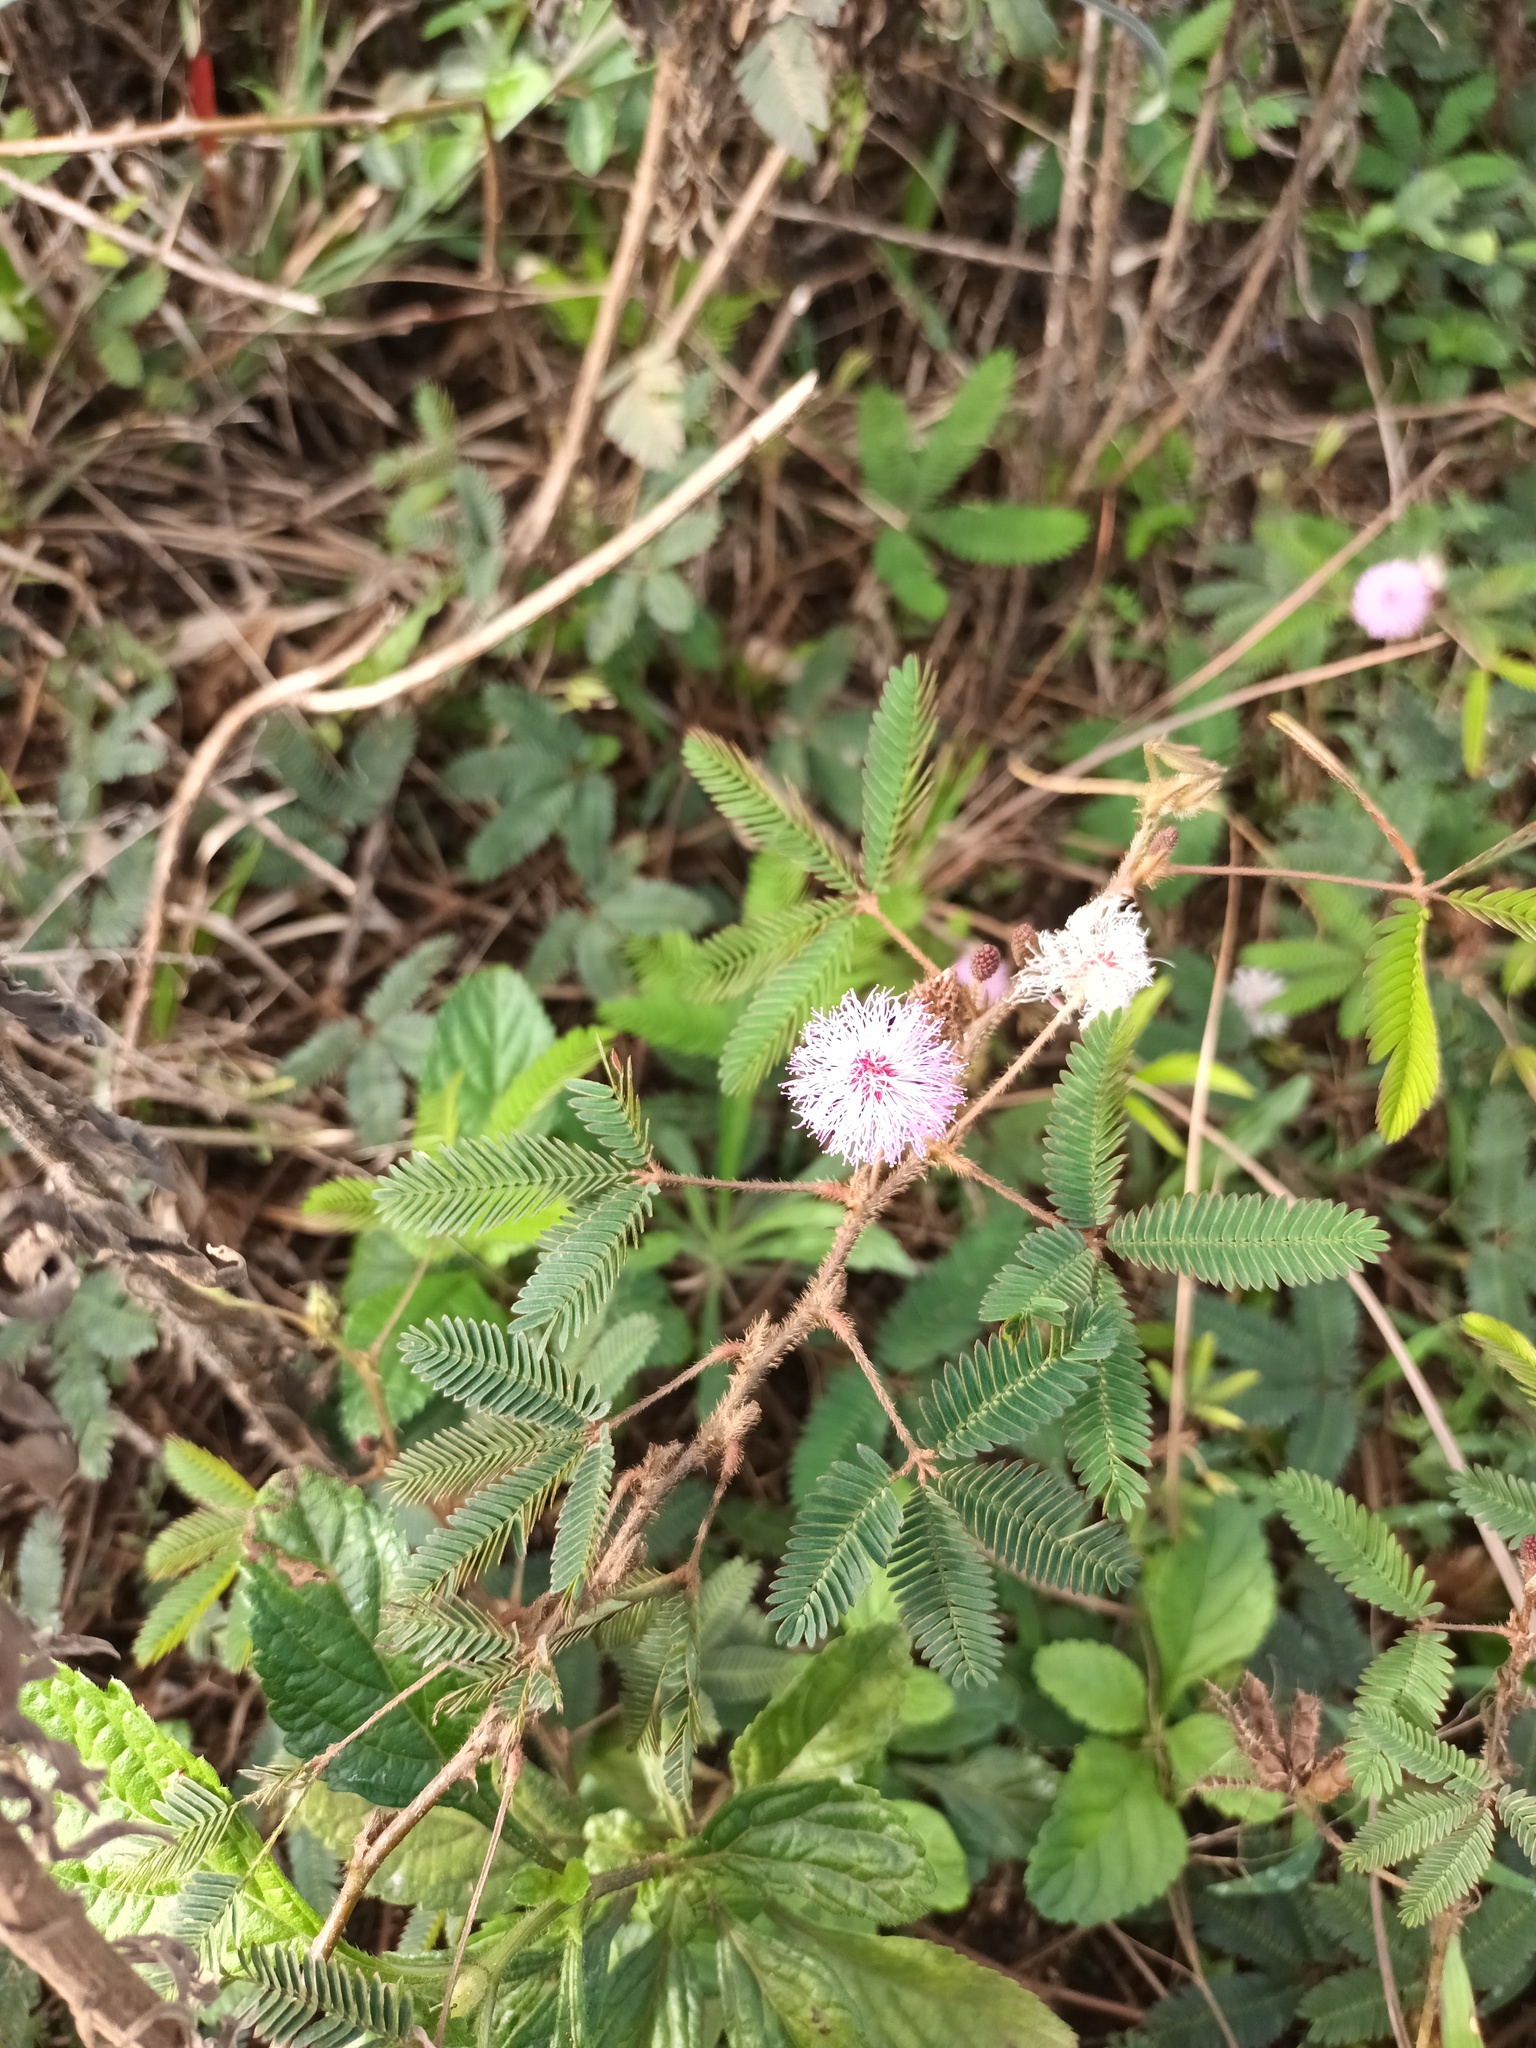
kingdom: Plantae
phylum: Tracheophyta
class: Magnoliopsida
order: Fabales
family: Fabaceae
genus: Mimosa
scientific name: Mimosa pudica
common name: Sensitive plant
